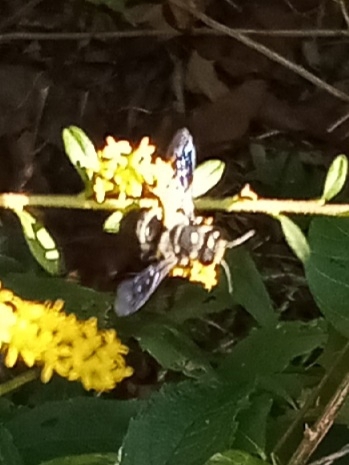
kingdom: Animalia
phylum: Arthropoda
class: Insecta
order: Hymenoptera
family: Megachilidae
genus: Megachile
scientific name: Megachile xylocopoides
